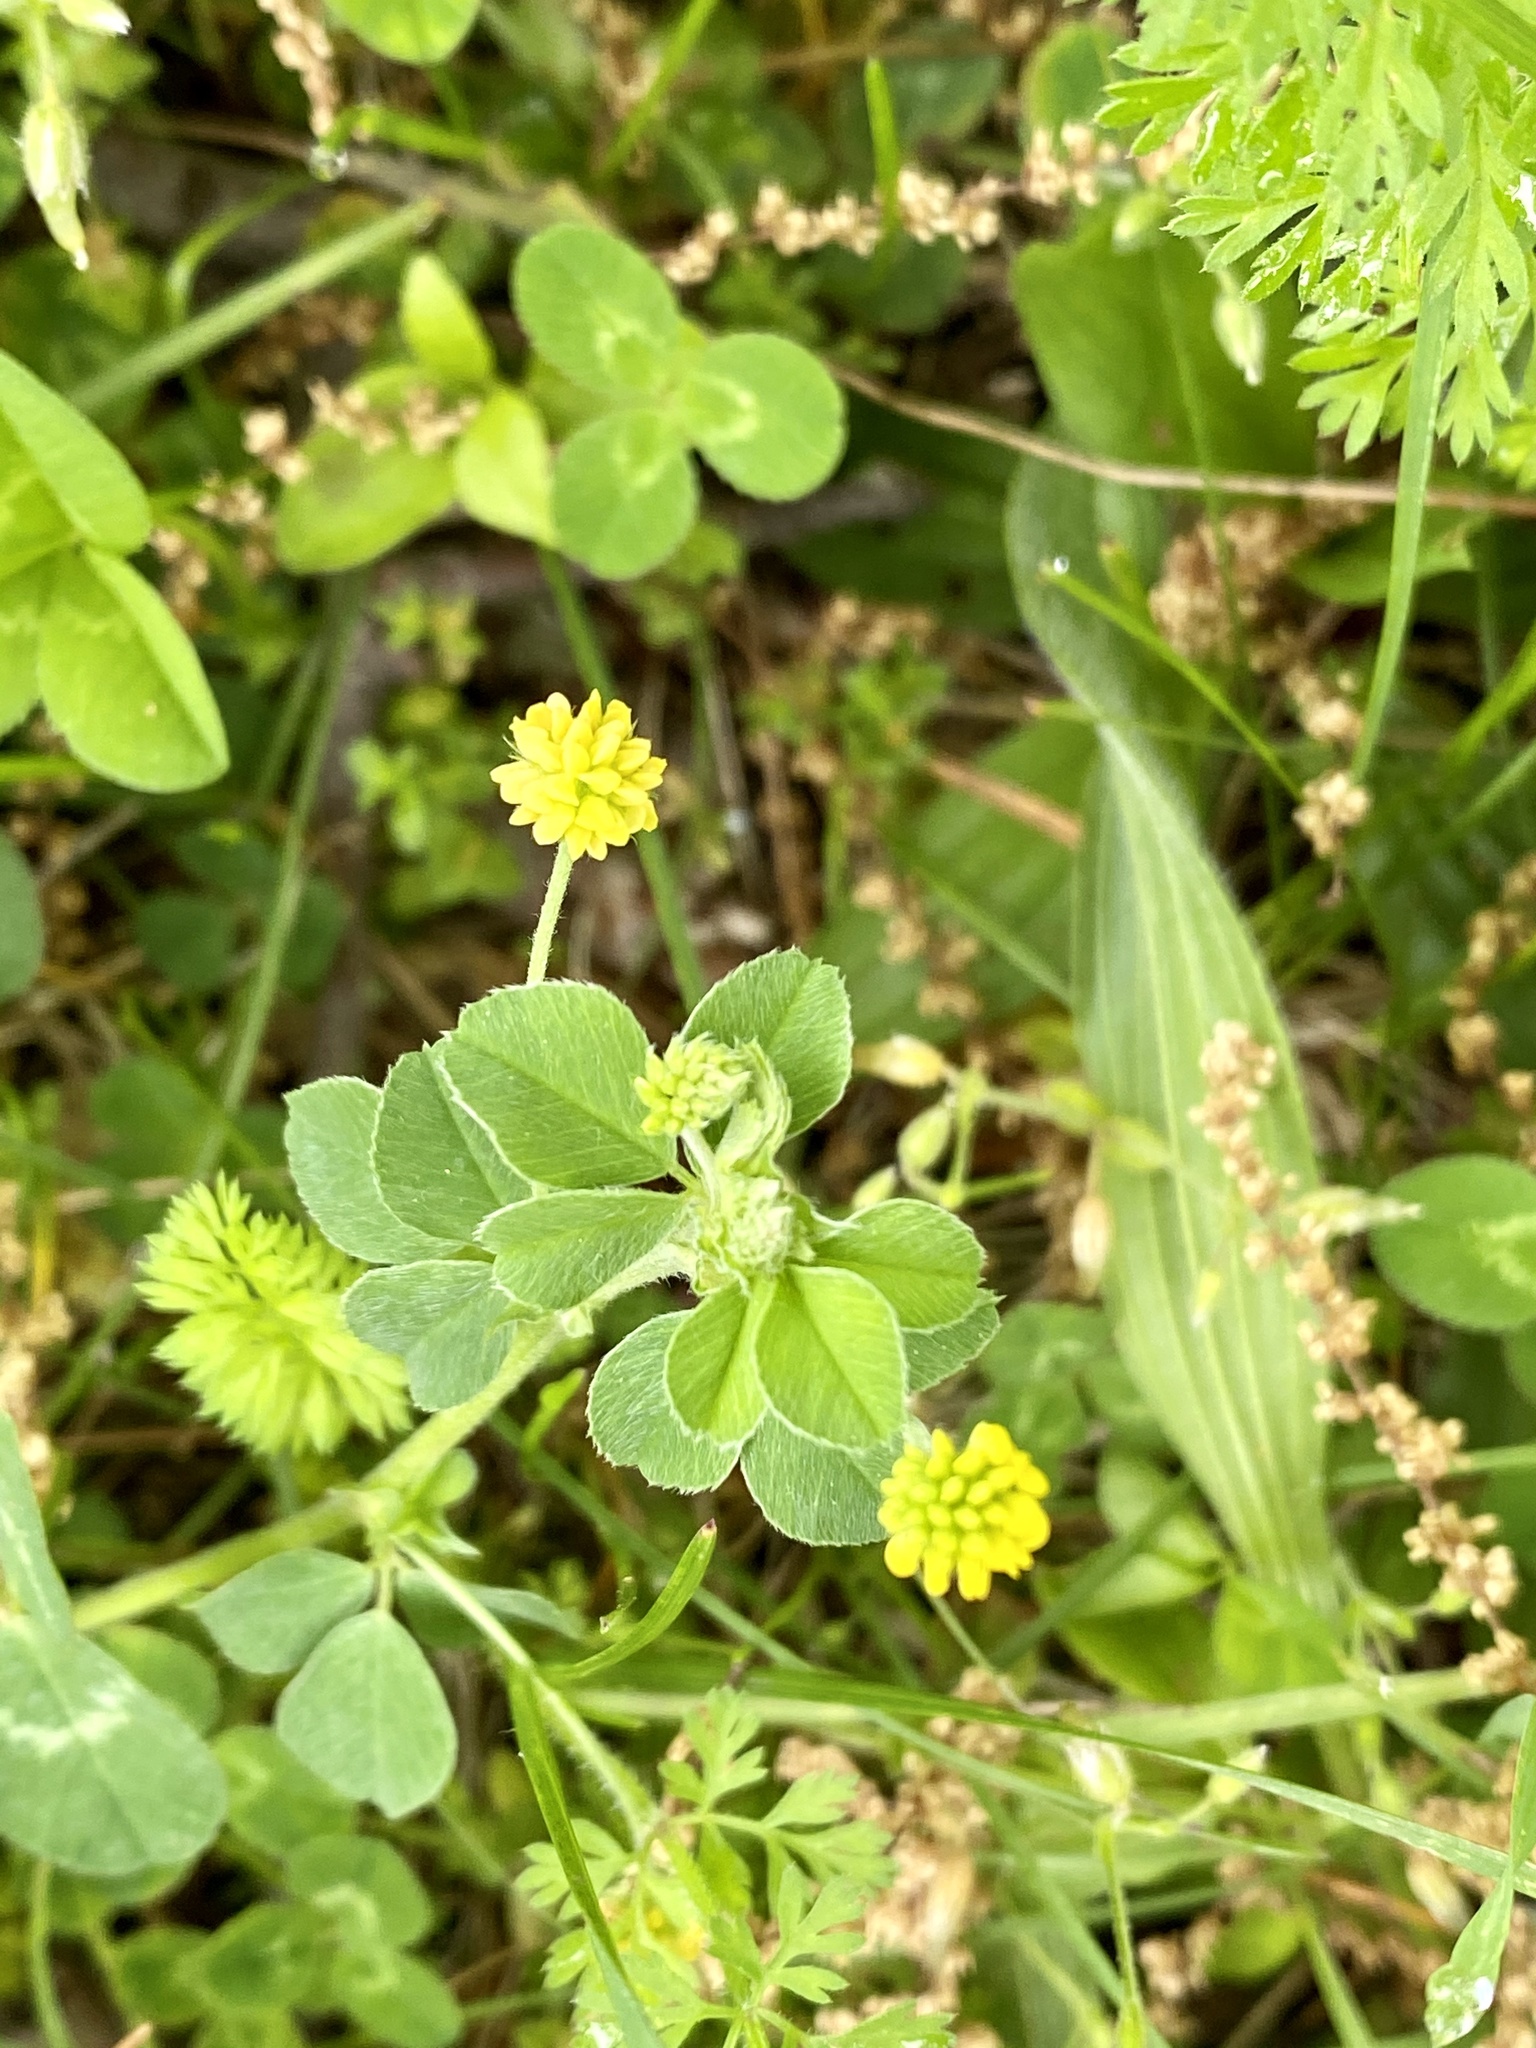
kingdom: Plantae
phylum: Tracheophyta
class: Magnoliopsida
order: Fabales
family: Fabaceae
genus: Medicago
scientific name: Medicago lupulina
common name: Black medick
